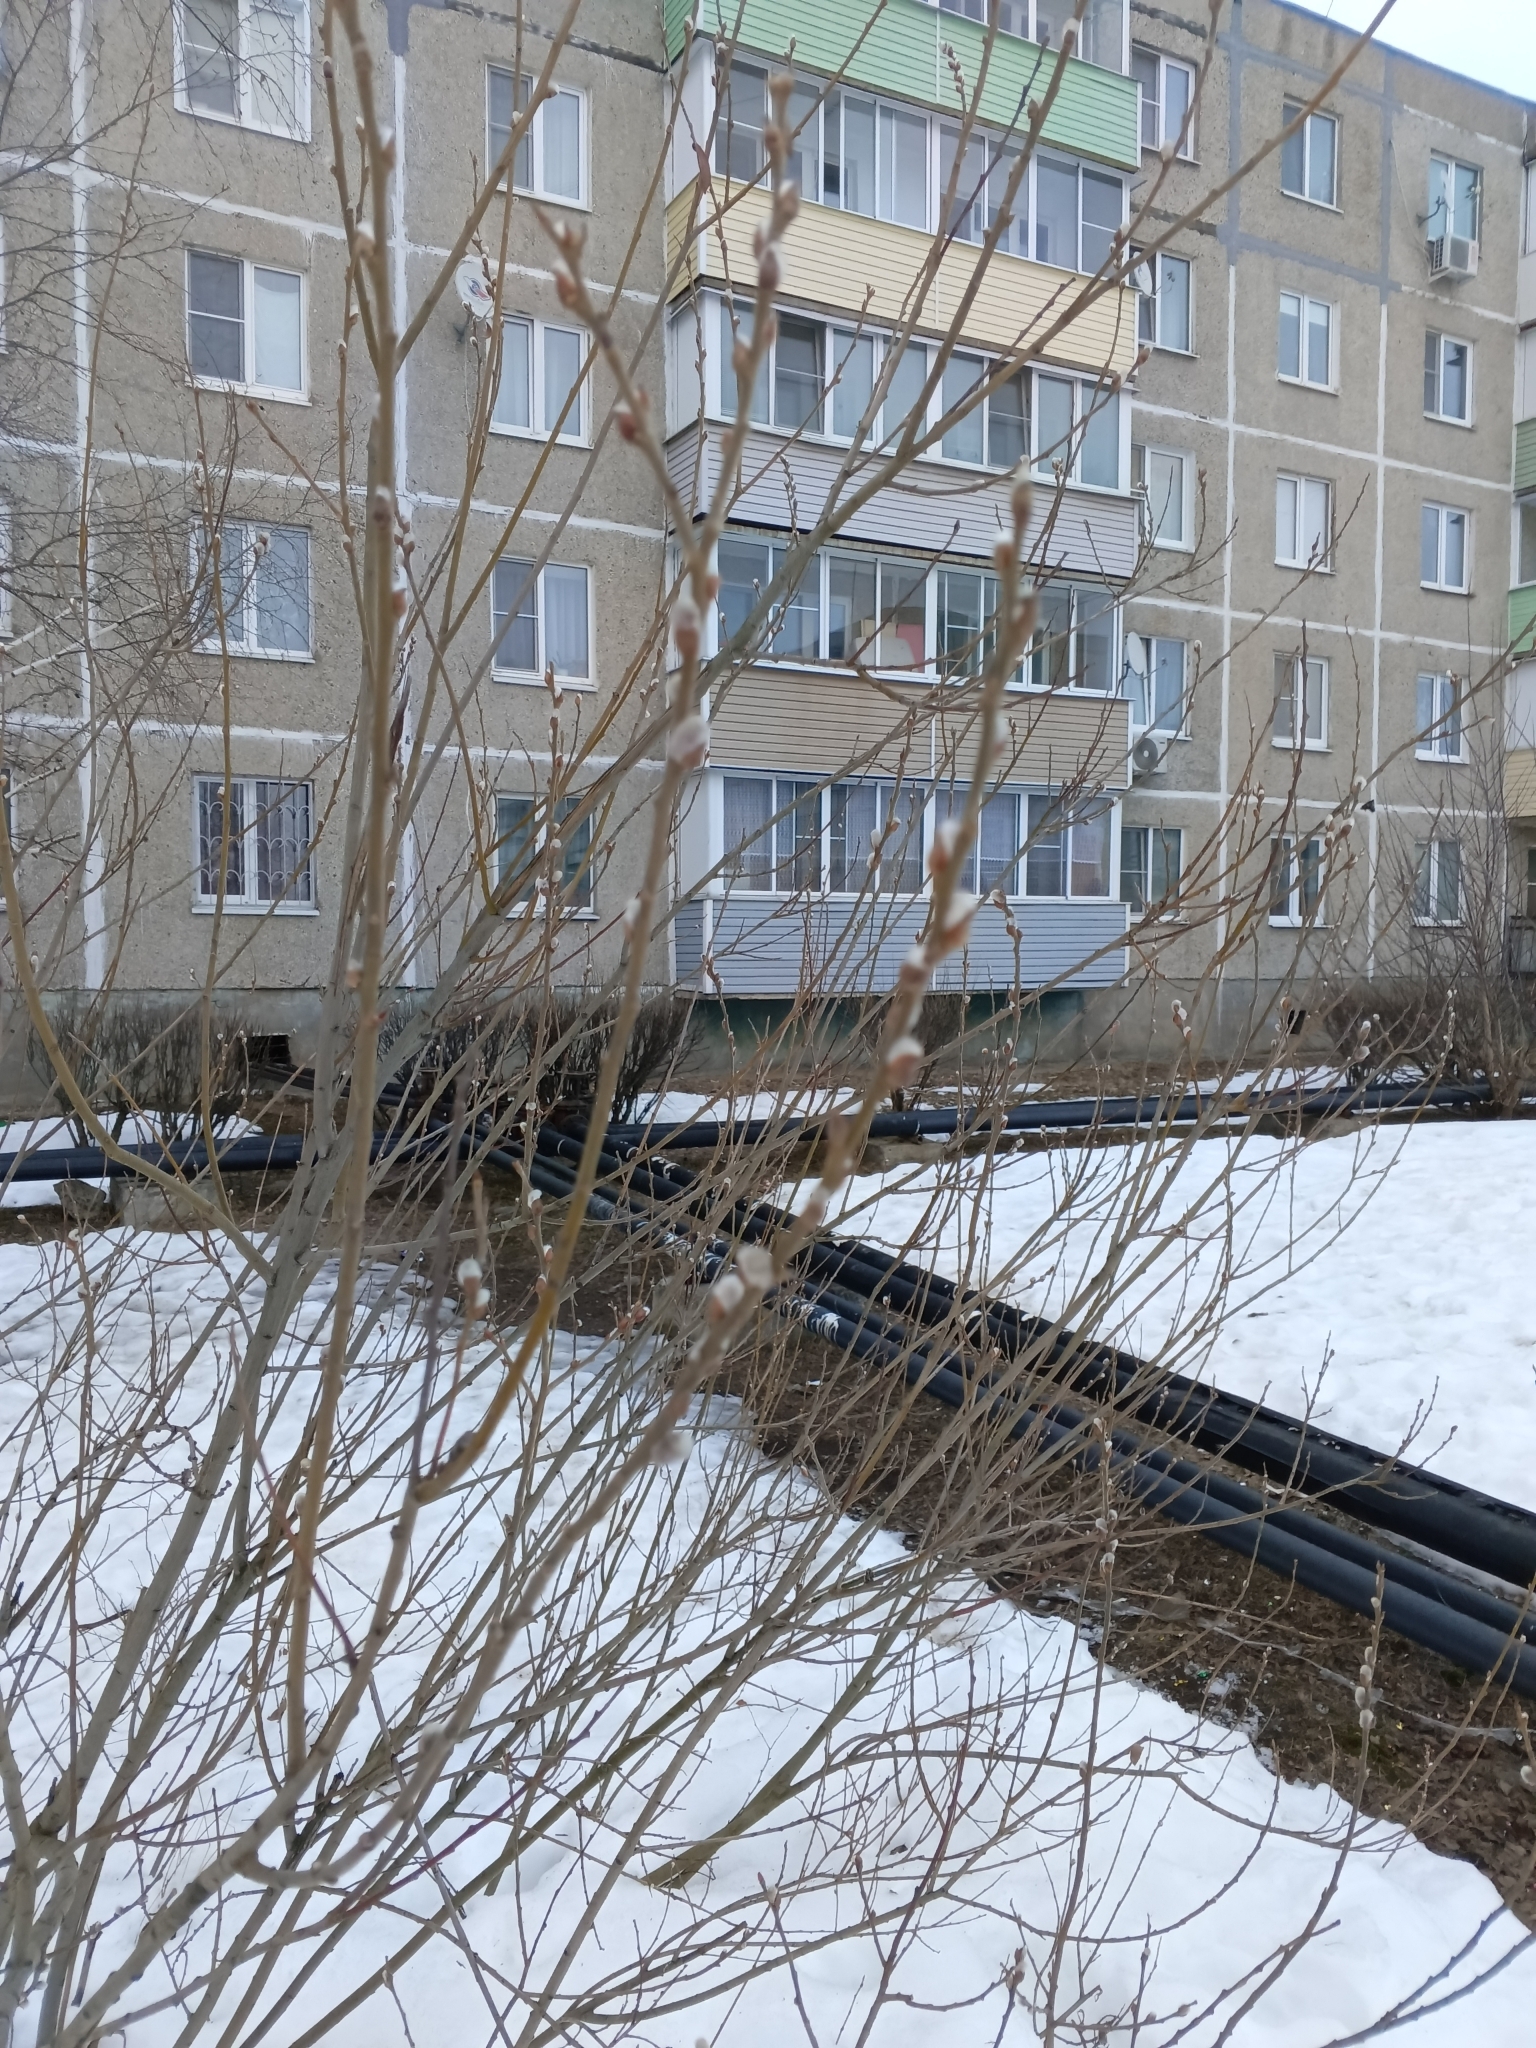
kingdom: Plantae
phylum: Tracheophyta
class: Magnoliopsida
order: Malpighiales
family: Salicaceae
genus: Salix
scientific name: Salix caprea
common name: Goat willow
